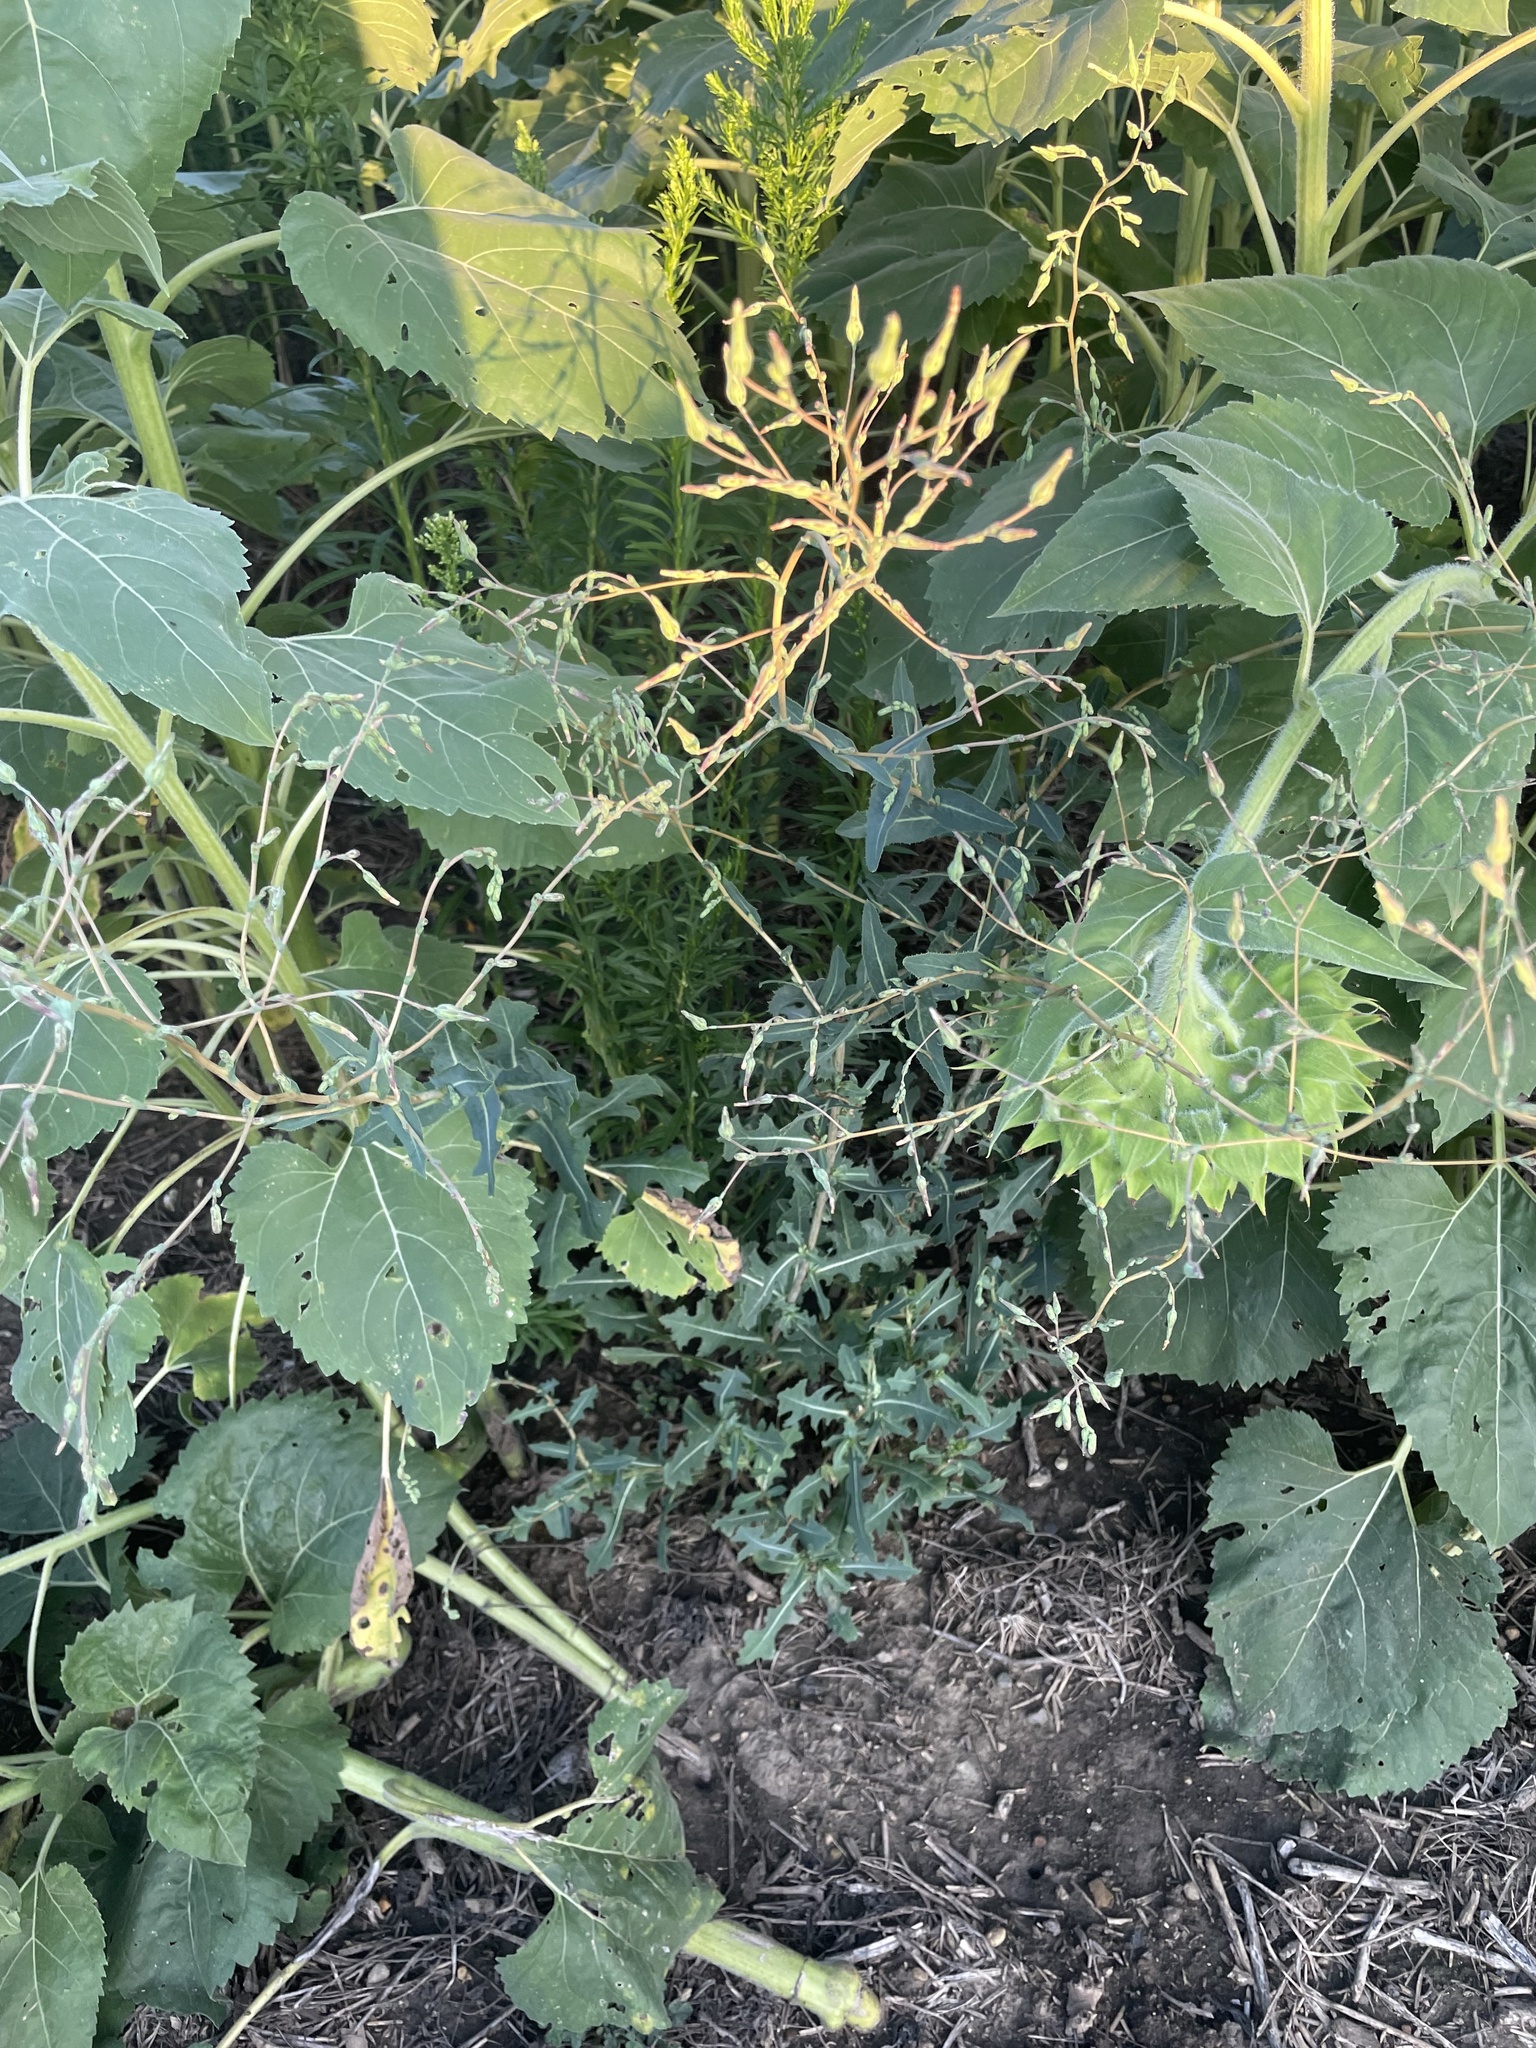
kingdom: Plantae
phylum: Tracheophyta
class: Magnoliopsida
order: Asterales
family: Asteraceae
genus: Lactuca
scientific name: Lactuca serriola
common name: Prickly lettuce
